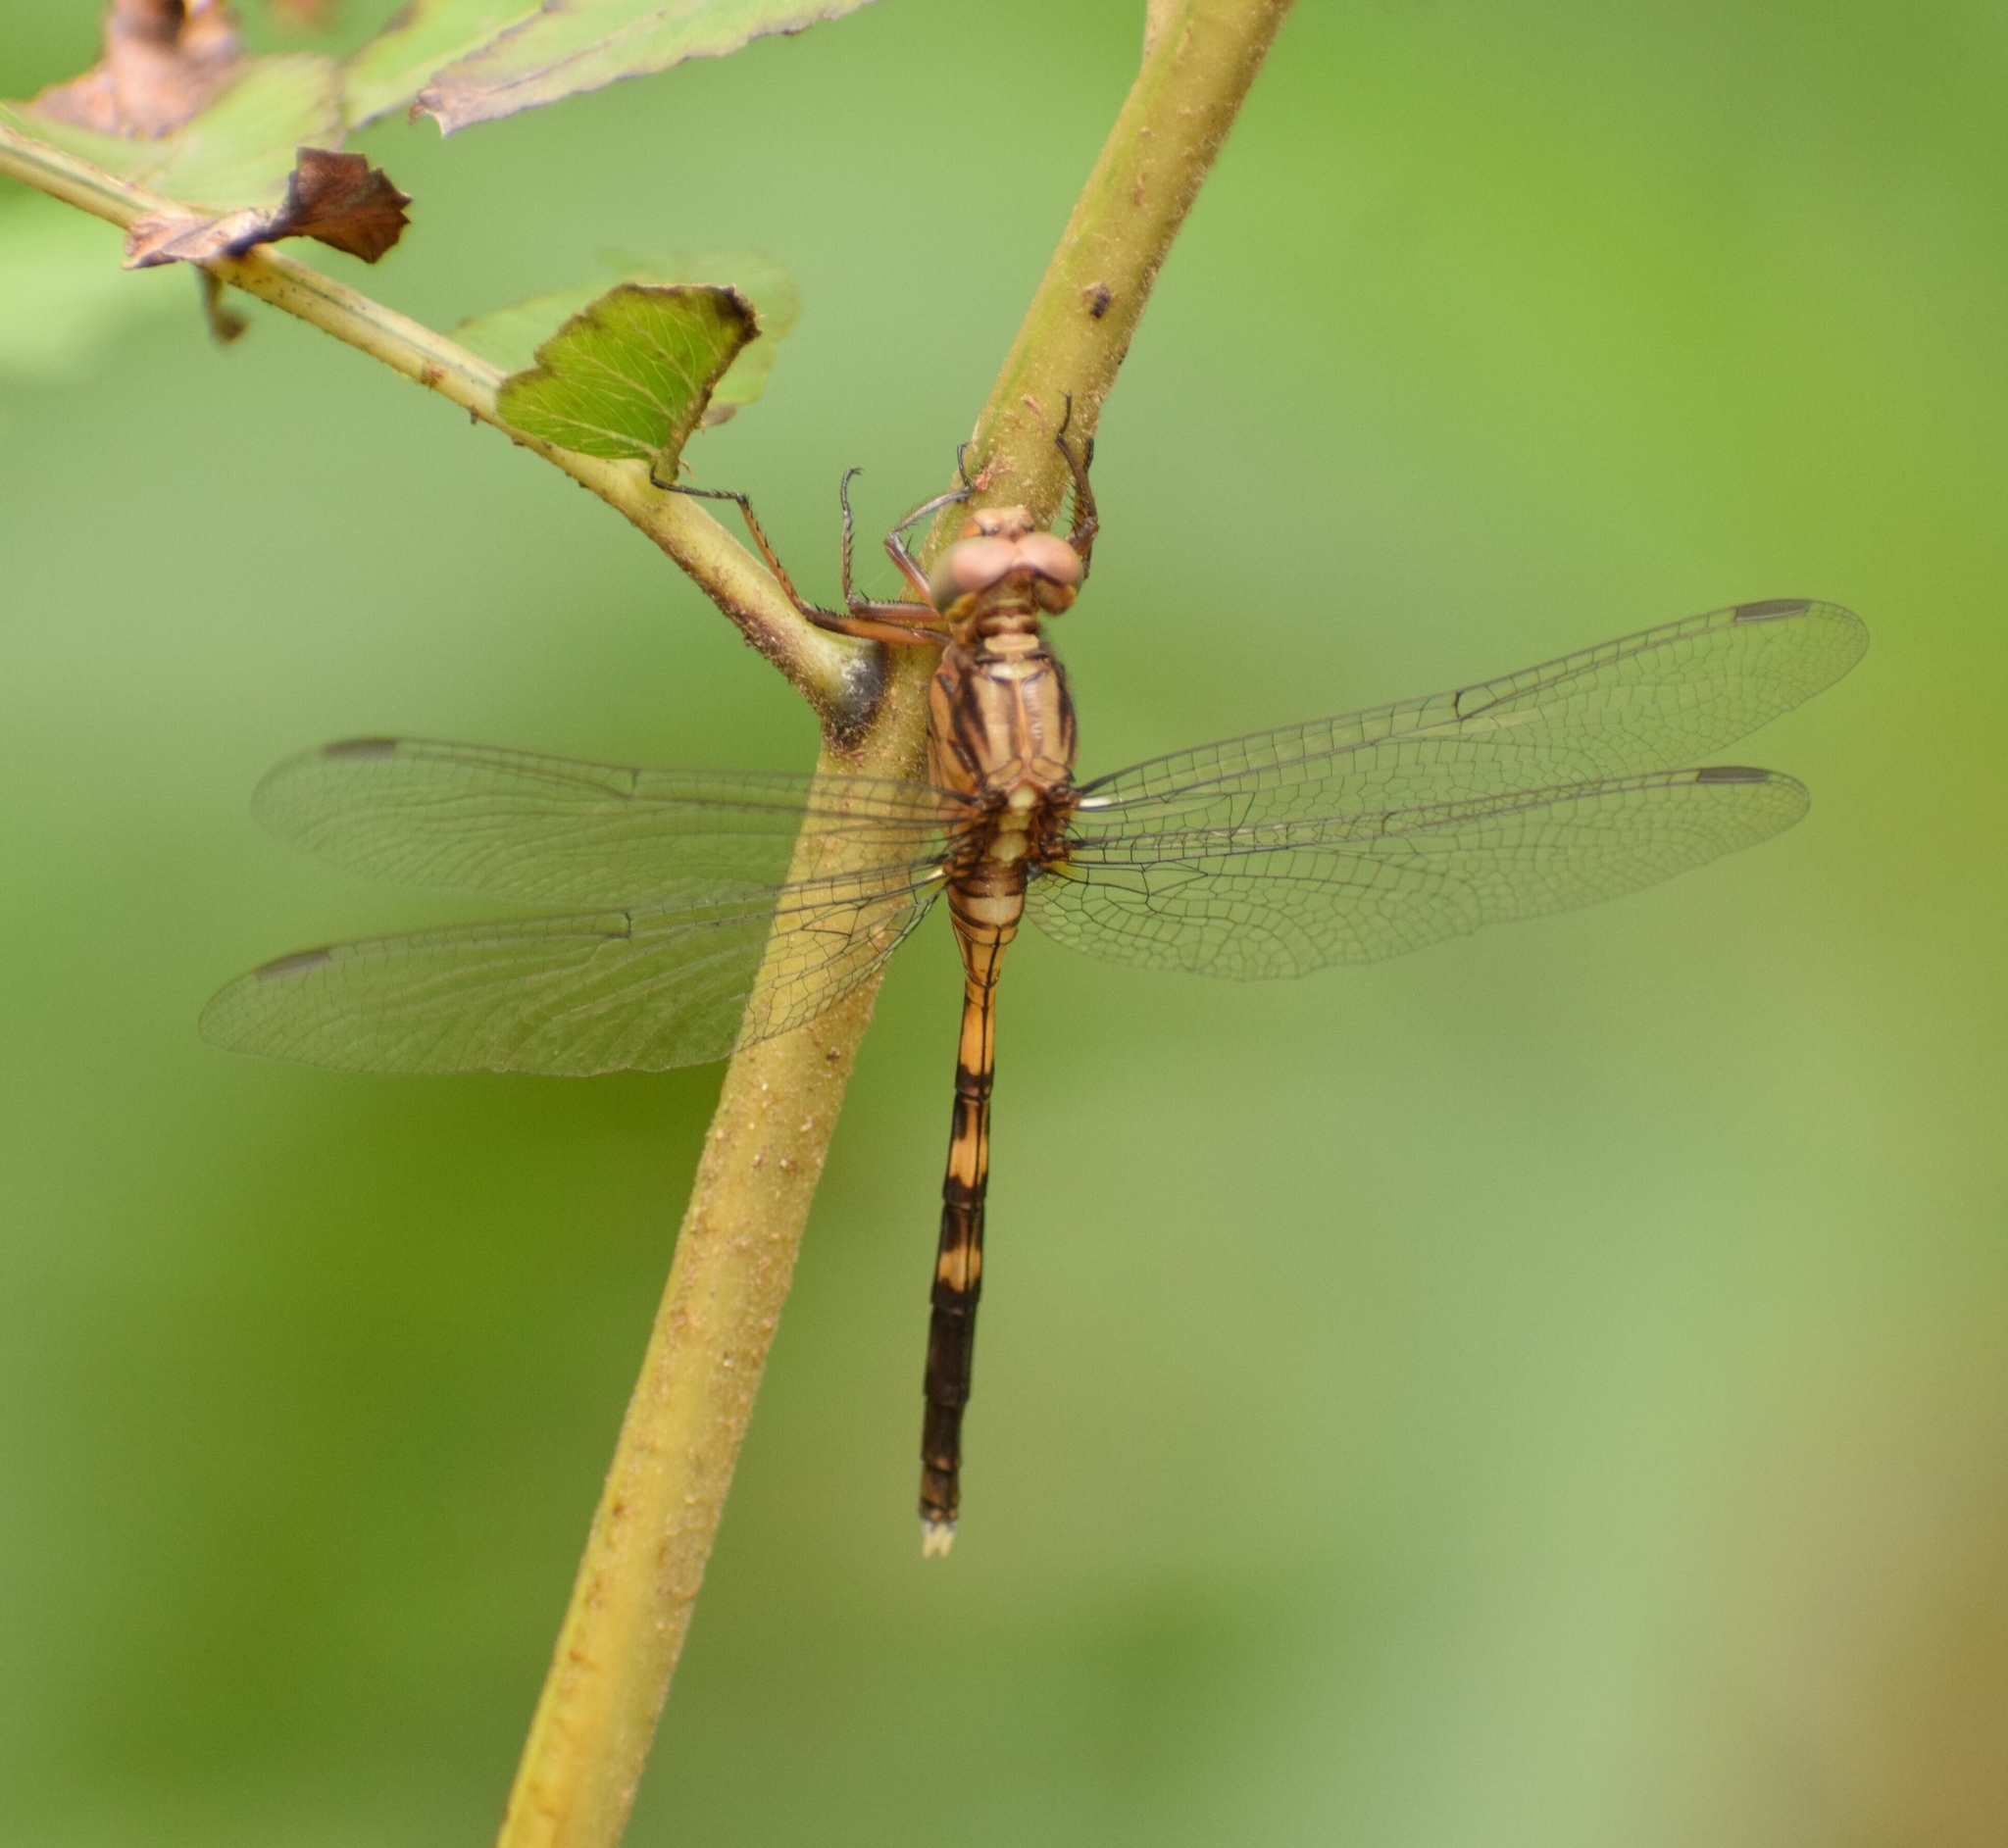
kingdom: Animalia
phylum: Arthropoda
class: Insecta
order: Odonata
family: Libellulidae
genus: Orthetrum
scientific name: Orthetrum julia
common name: Julia skimmer
